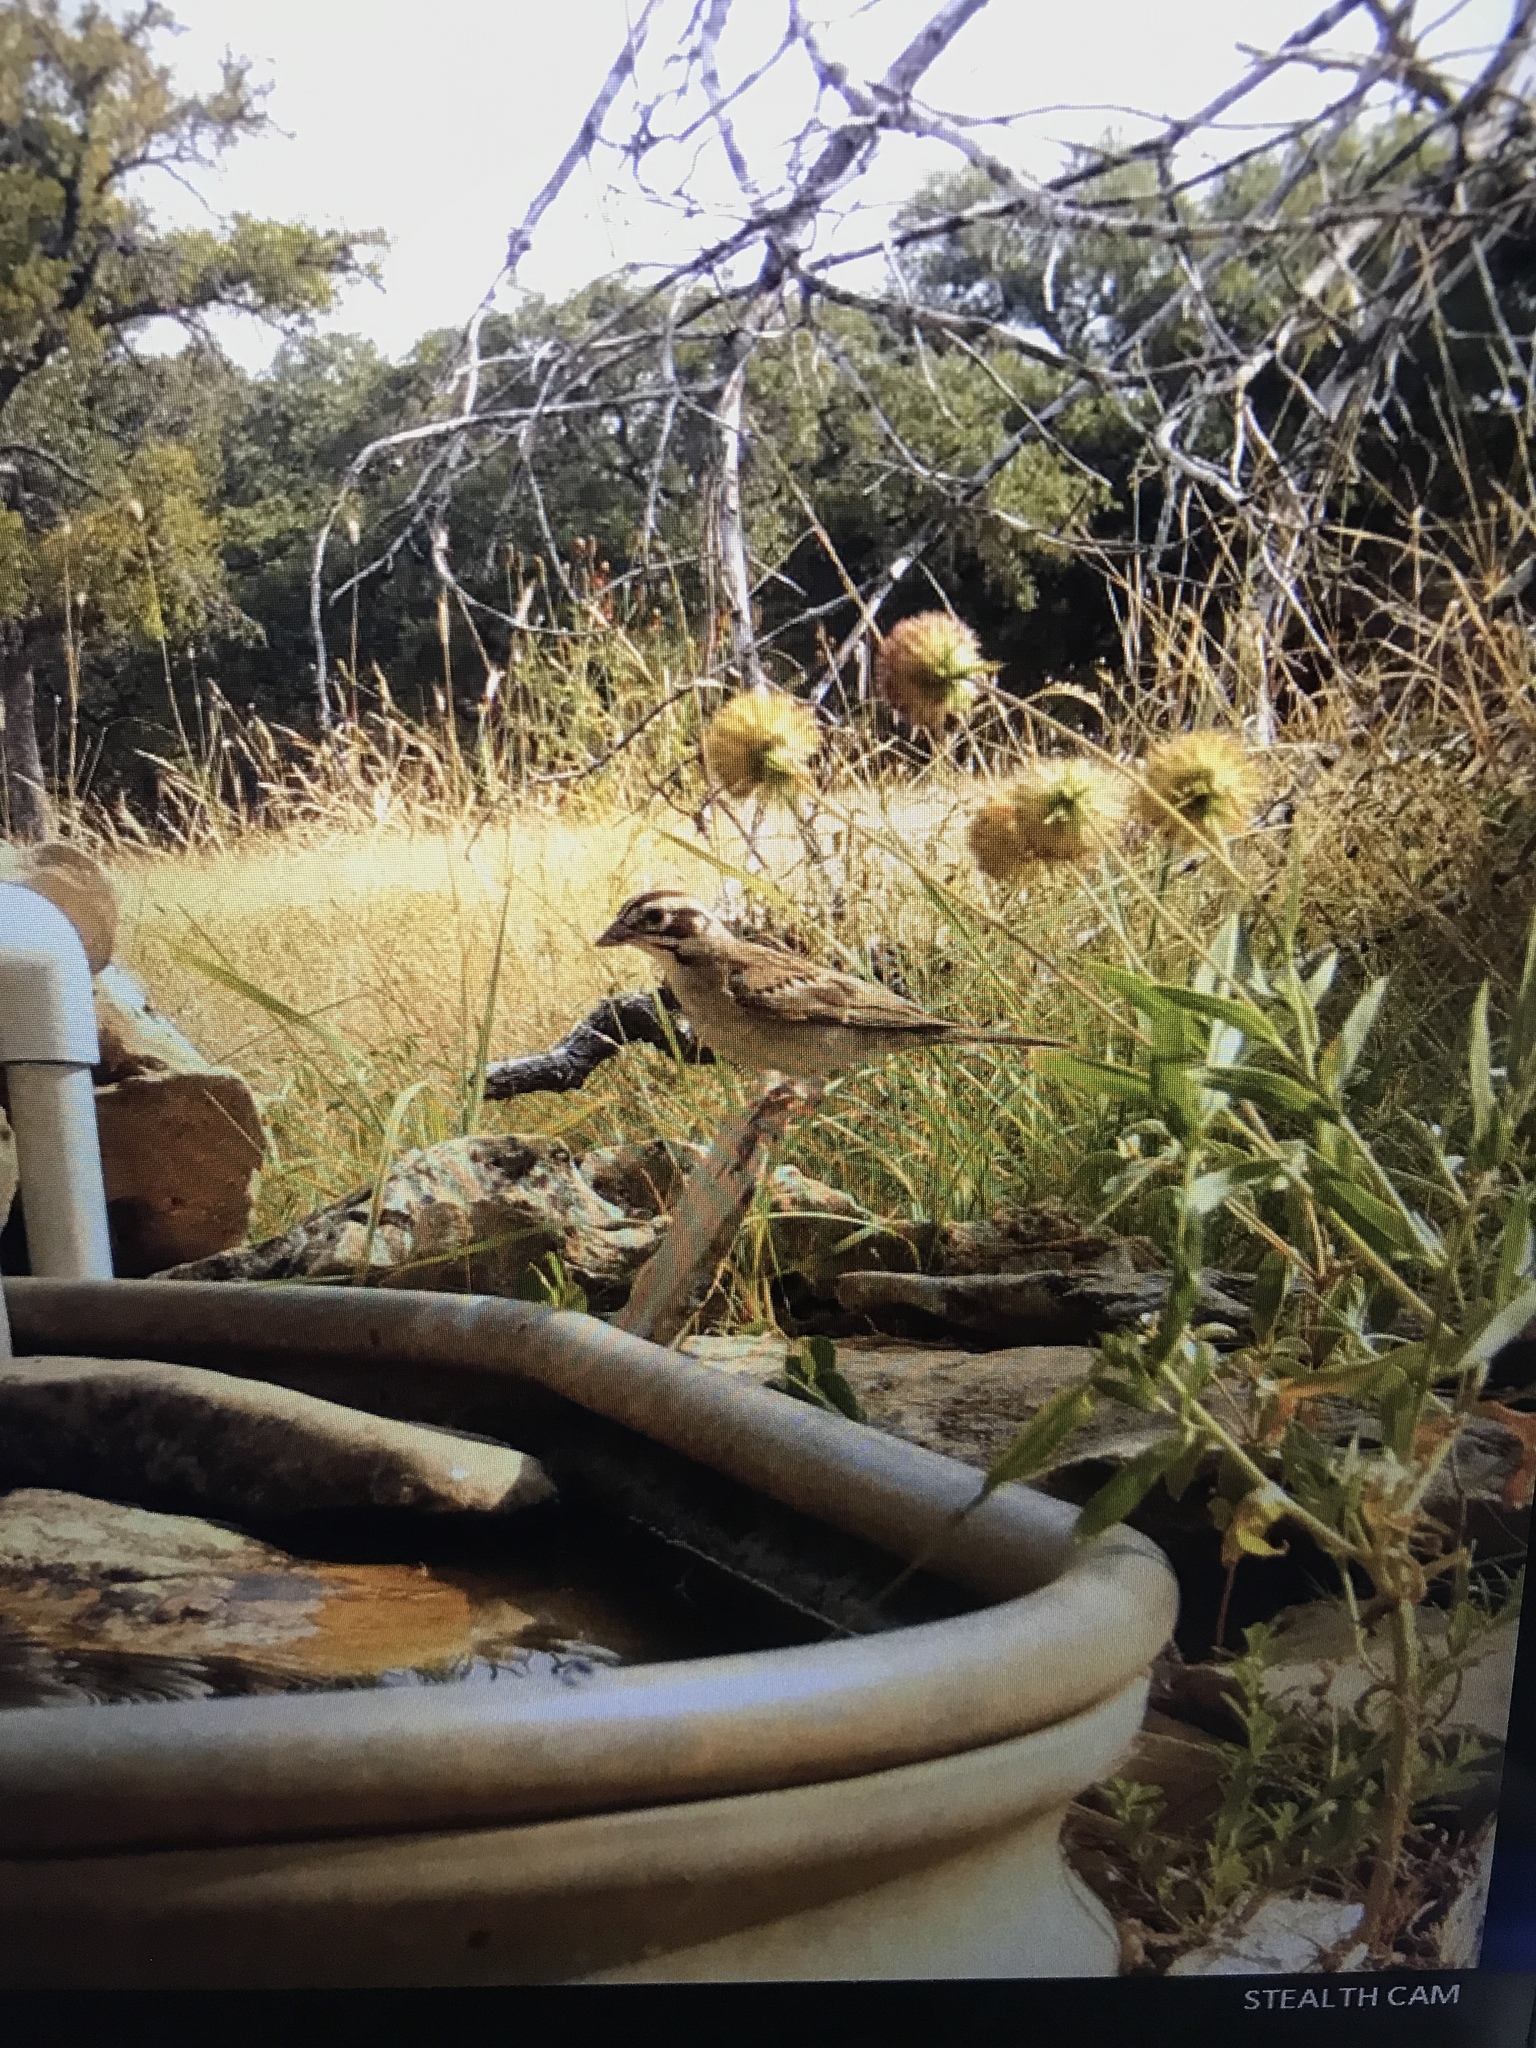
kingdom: Animalia
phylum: Chordata
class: Aves
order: Passeriformes
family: Passerellidae
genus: Chondestes
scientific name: Chondestes grammacus
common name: Lark sparrow
